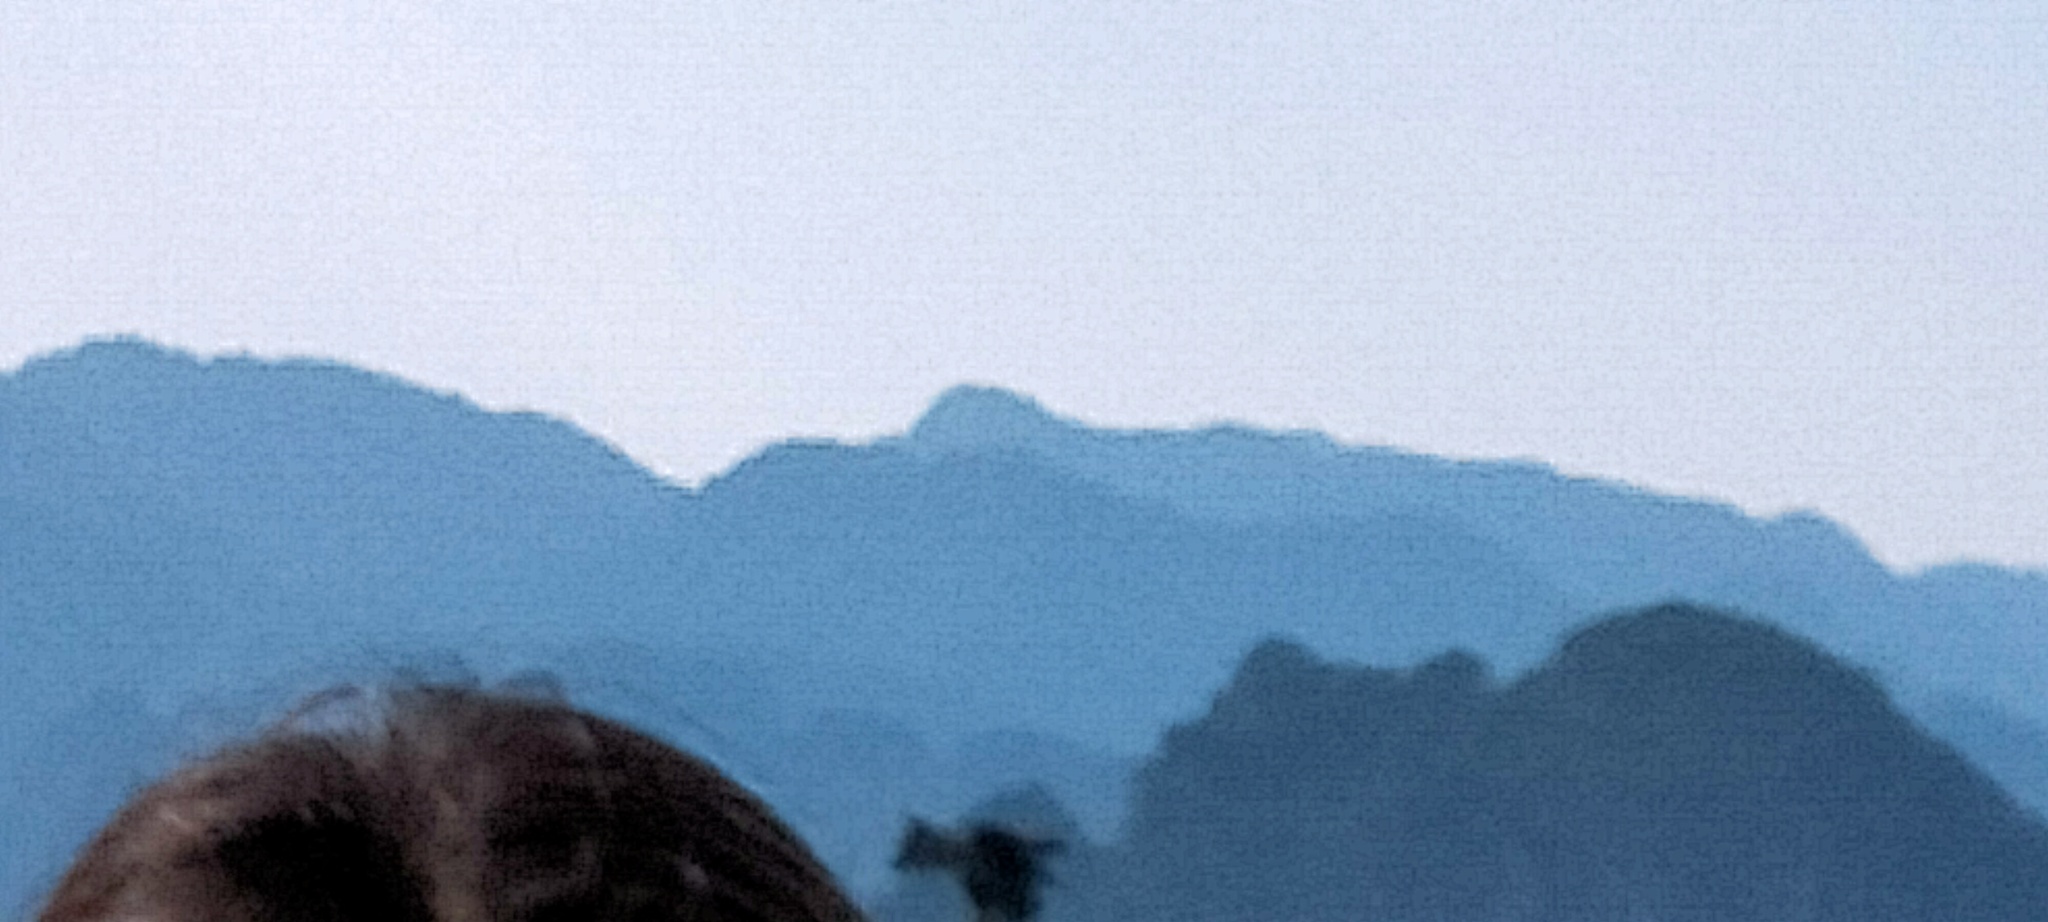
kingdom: Animalia
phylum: Chordata
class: Aves
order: Accipitriformes
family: Accipitridae
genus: Milvus
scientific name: Milvus migrans
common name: Black kite
